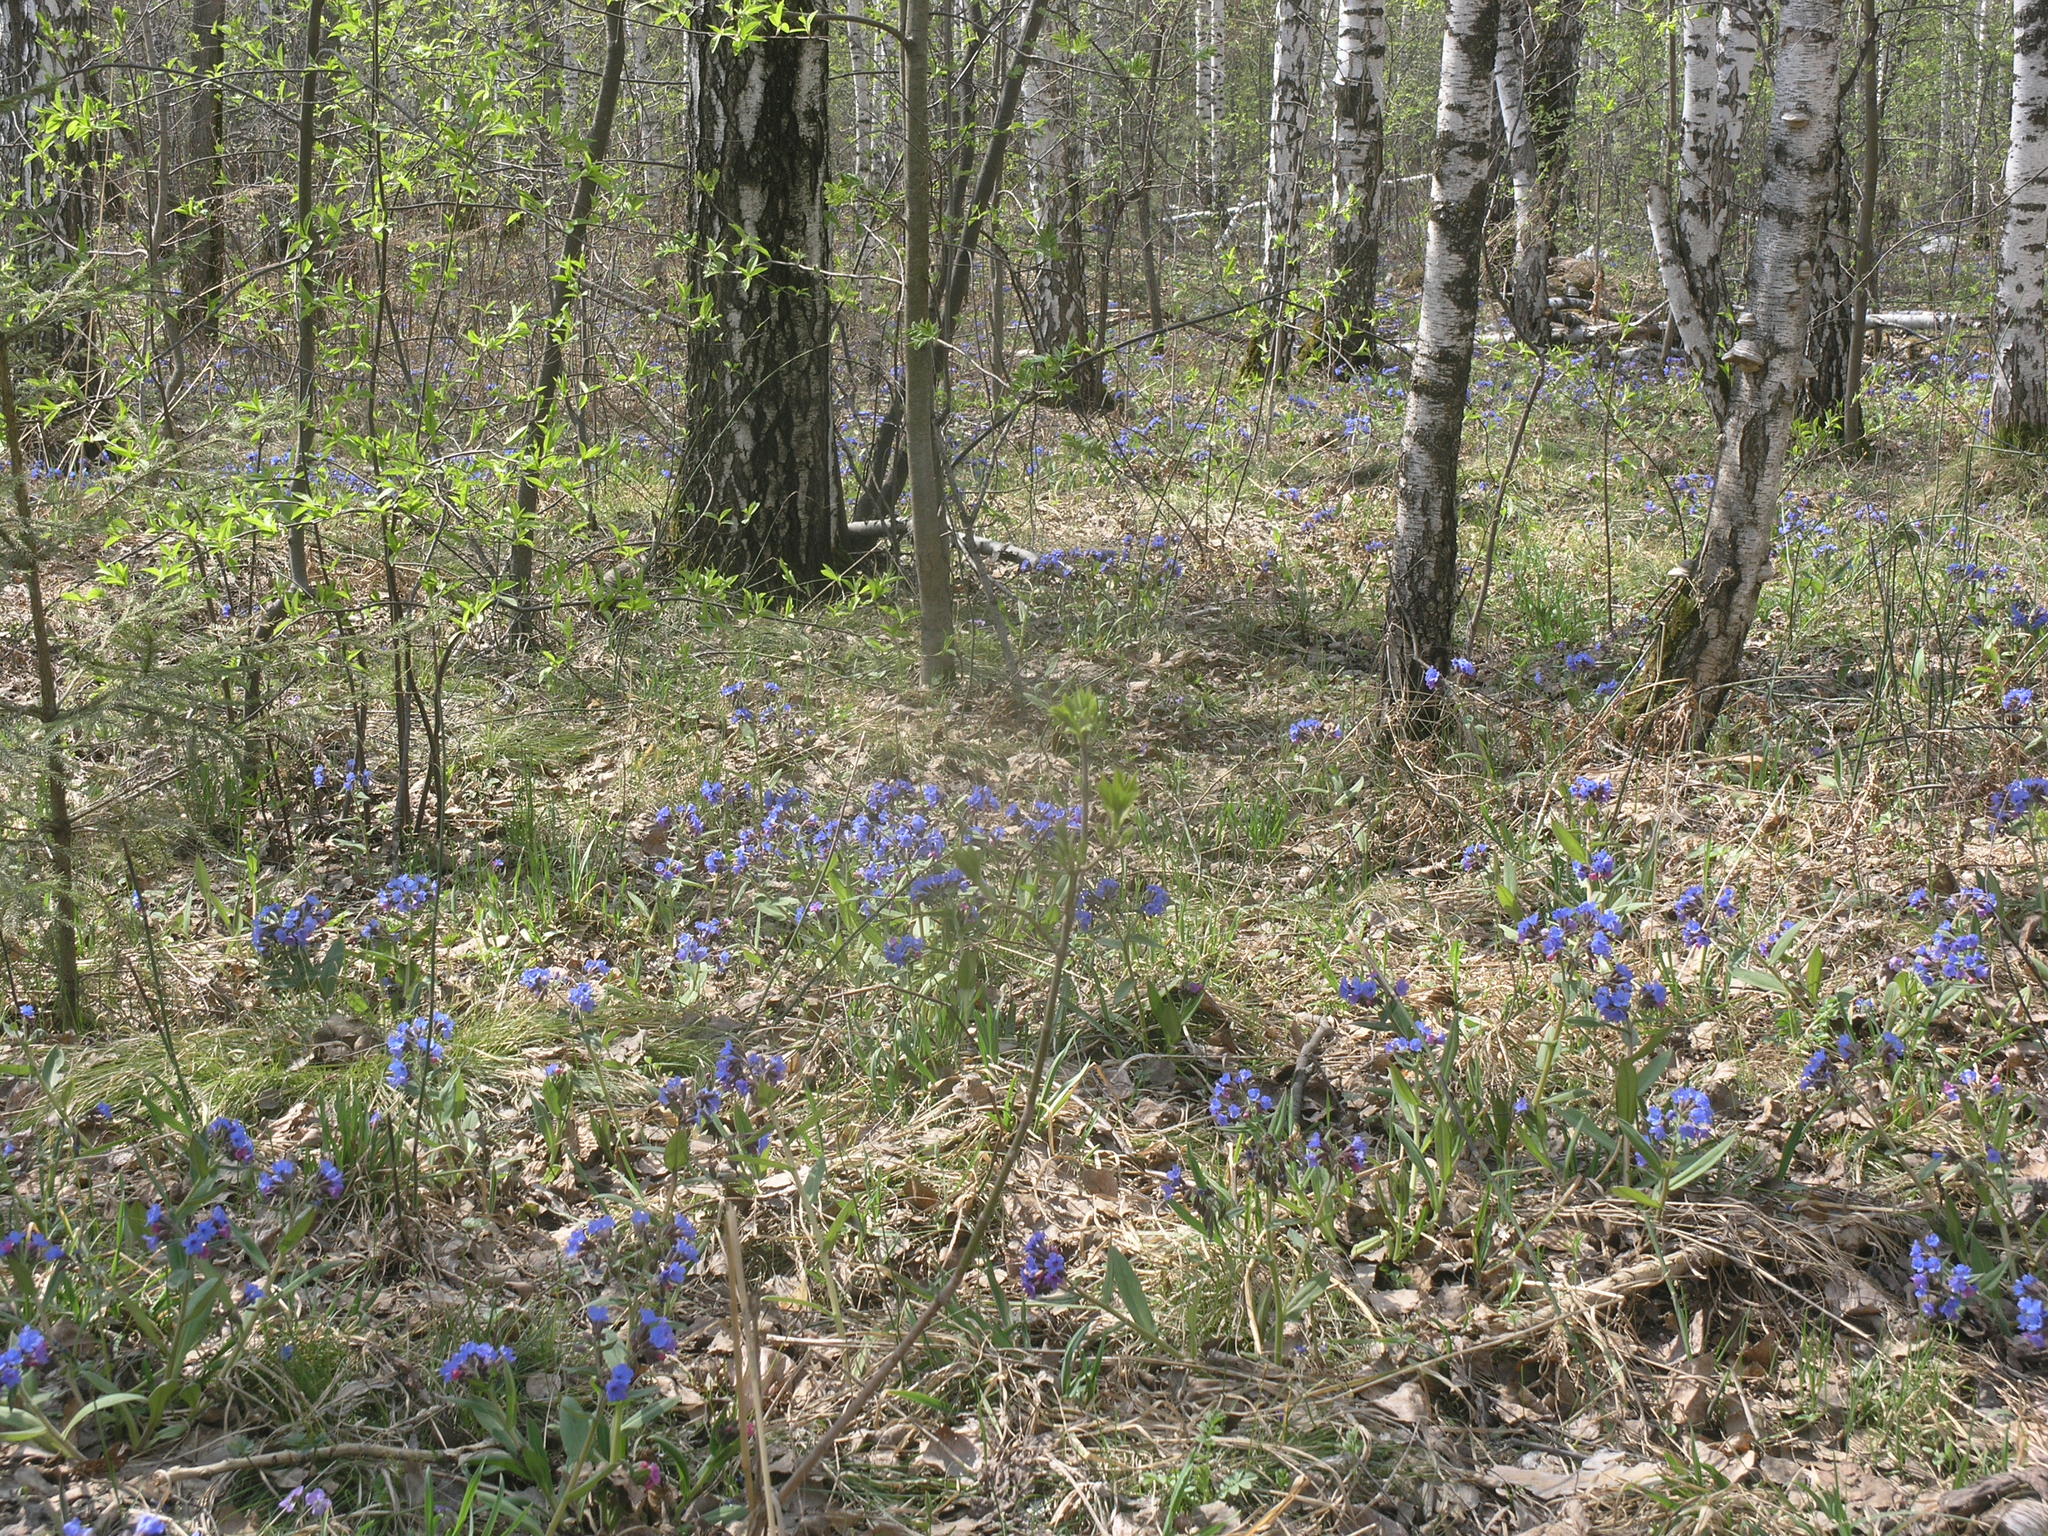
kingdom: Plantae
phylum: Tracheophyta
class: Magnoliopsida
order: Boraginales
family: Boraginaceae
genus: Pulmonaria
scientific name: Pulmonaria mollis
